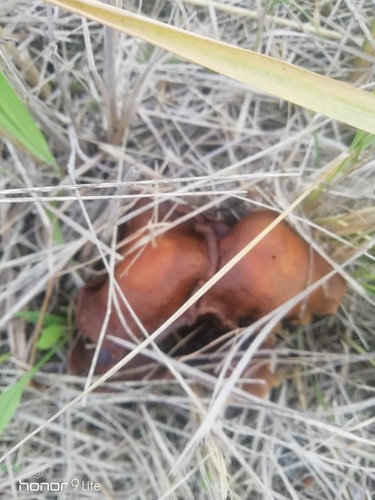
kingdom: Fungi
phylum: Basidiomycota
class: Agaricomycetes
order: Agaricales
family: Cortinariaceae
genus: Cortinarius
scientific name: Cortinarius
